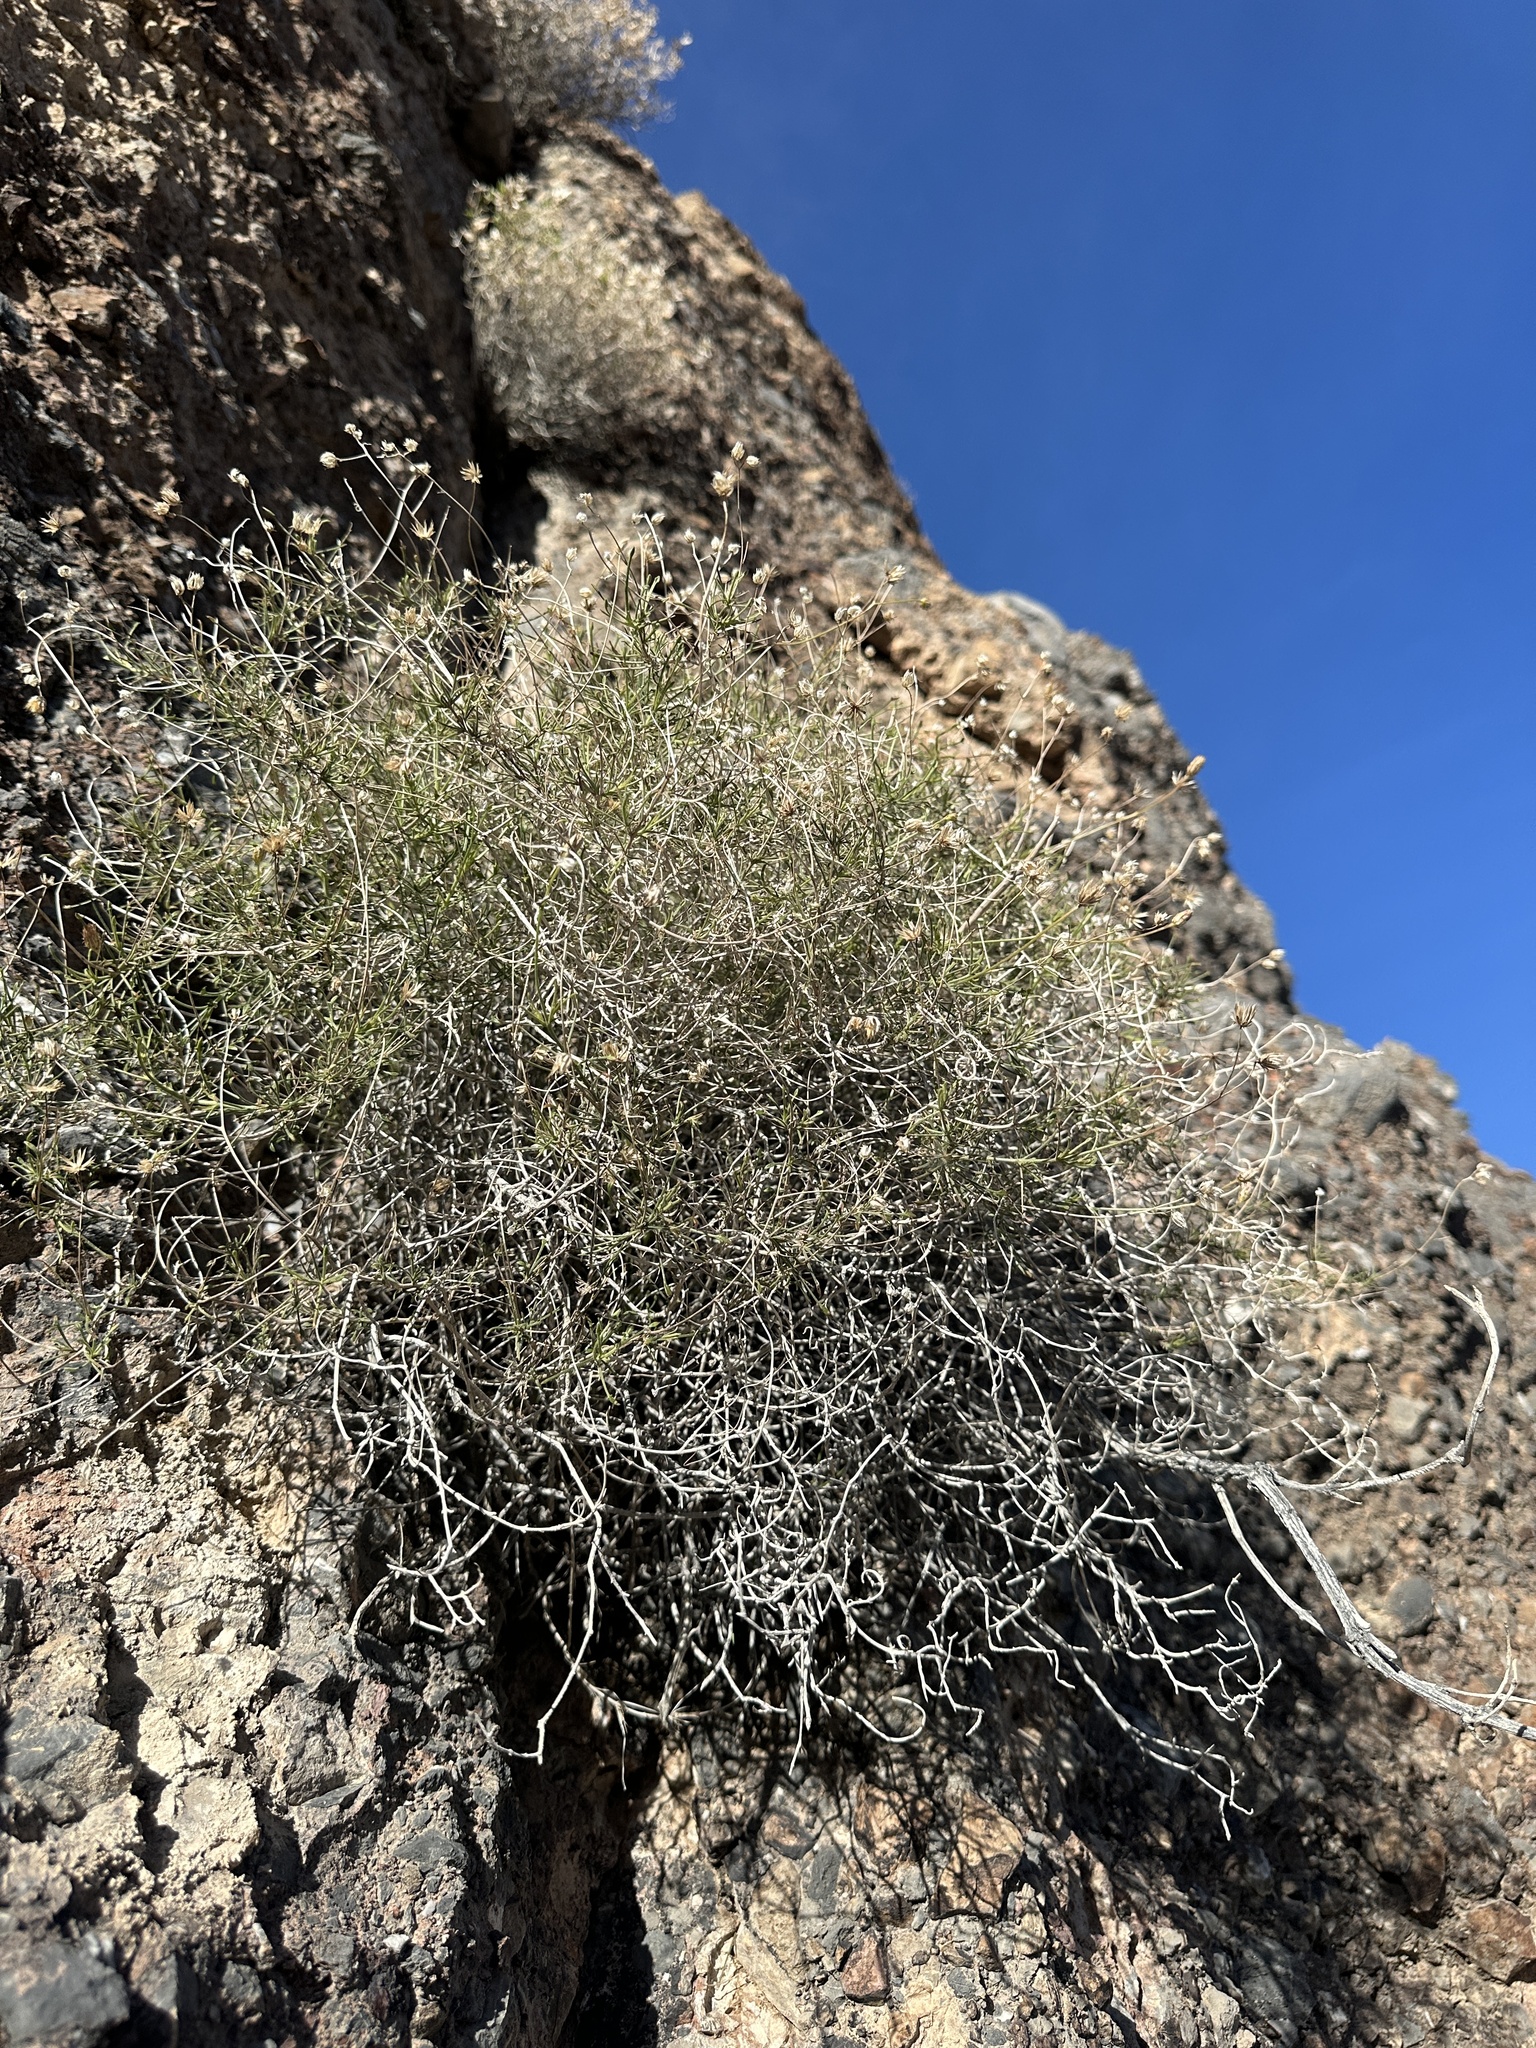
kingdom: Plantae
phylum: Tracheophyta
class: Magnoliopsida
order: Asterales
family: Asteraceae
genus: Pleurocoronis
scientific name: Pleurocoronis pluriseta
